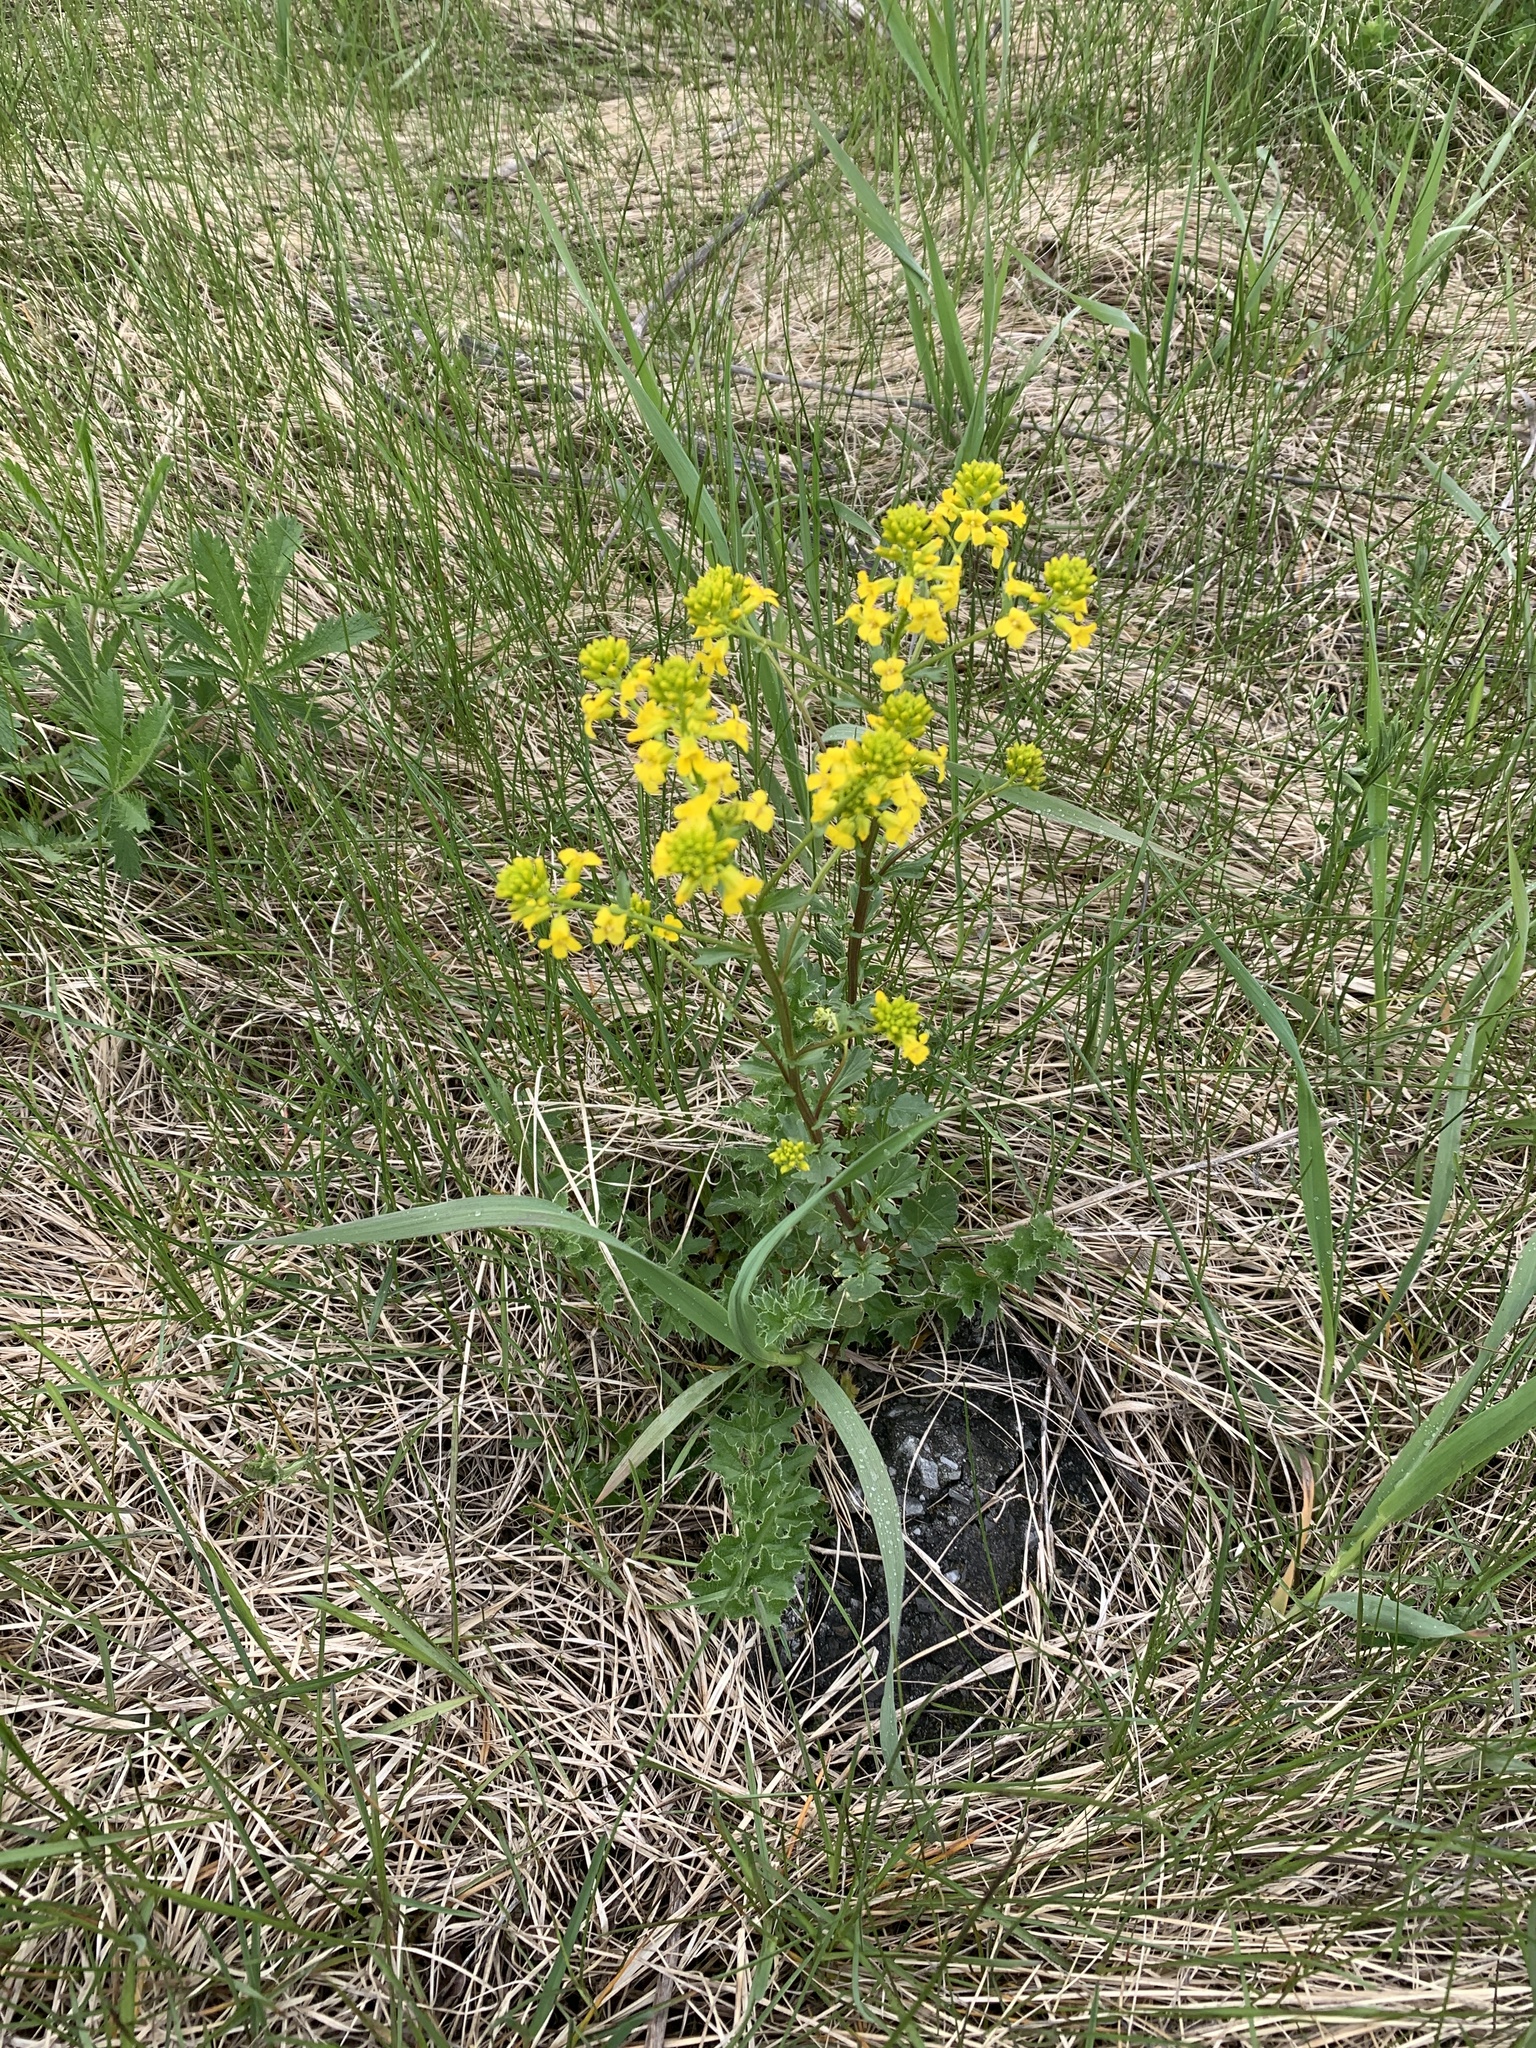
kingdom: Plantae
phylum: Tracheophyta
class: Magnoliopsida
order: Brassicales
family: Brassicaceae
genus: Barbarea
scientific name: Barbarea vulgaris
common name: Cressy-greens
